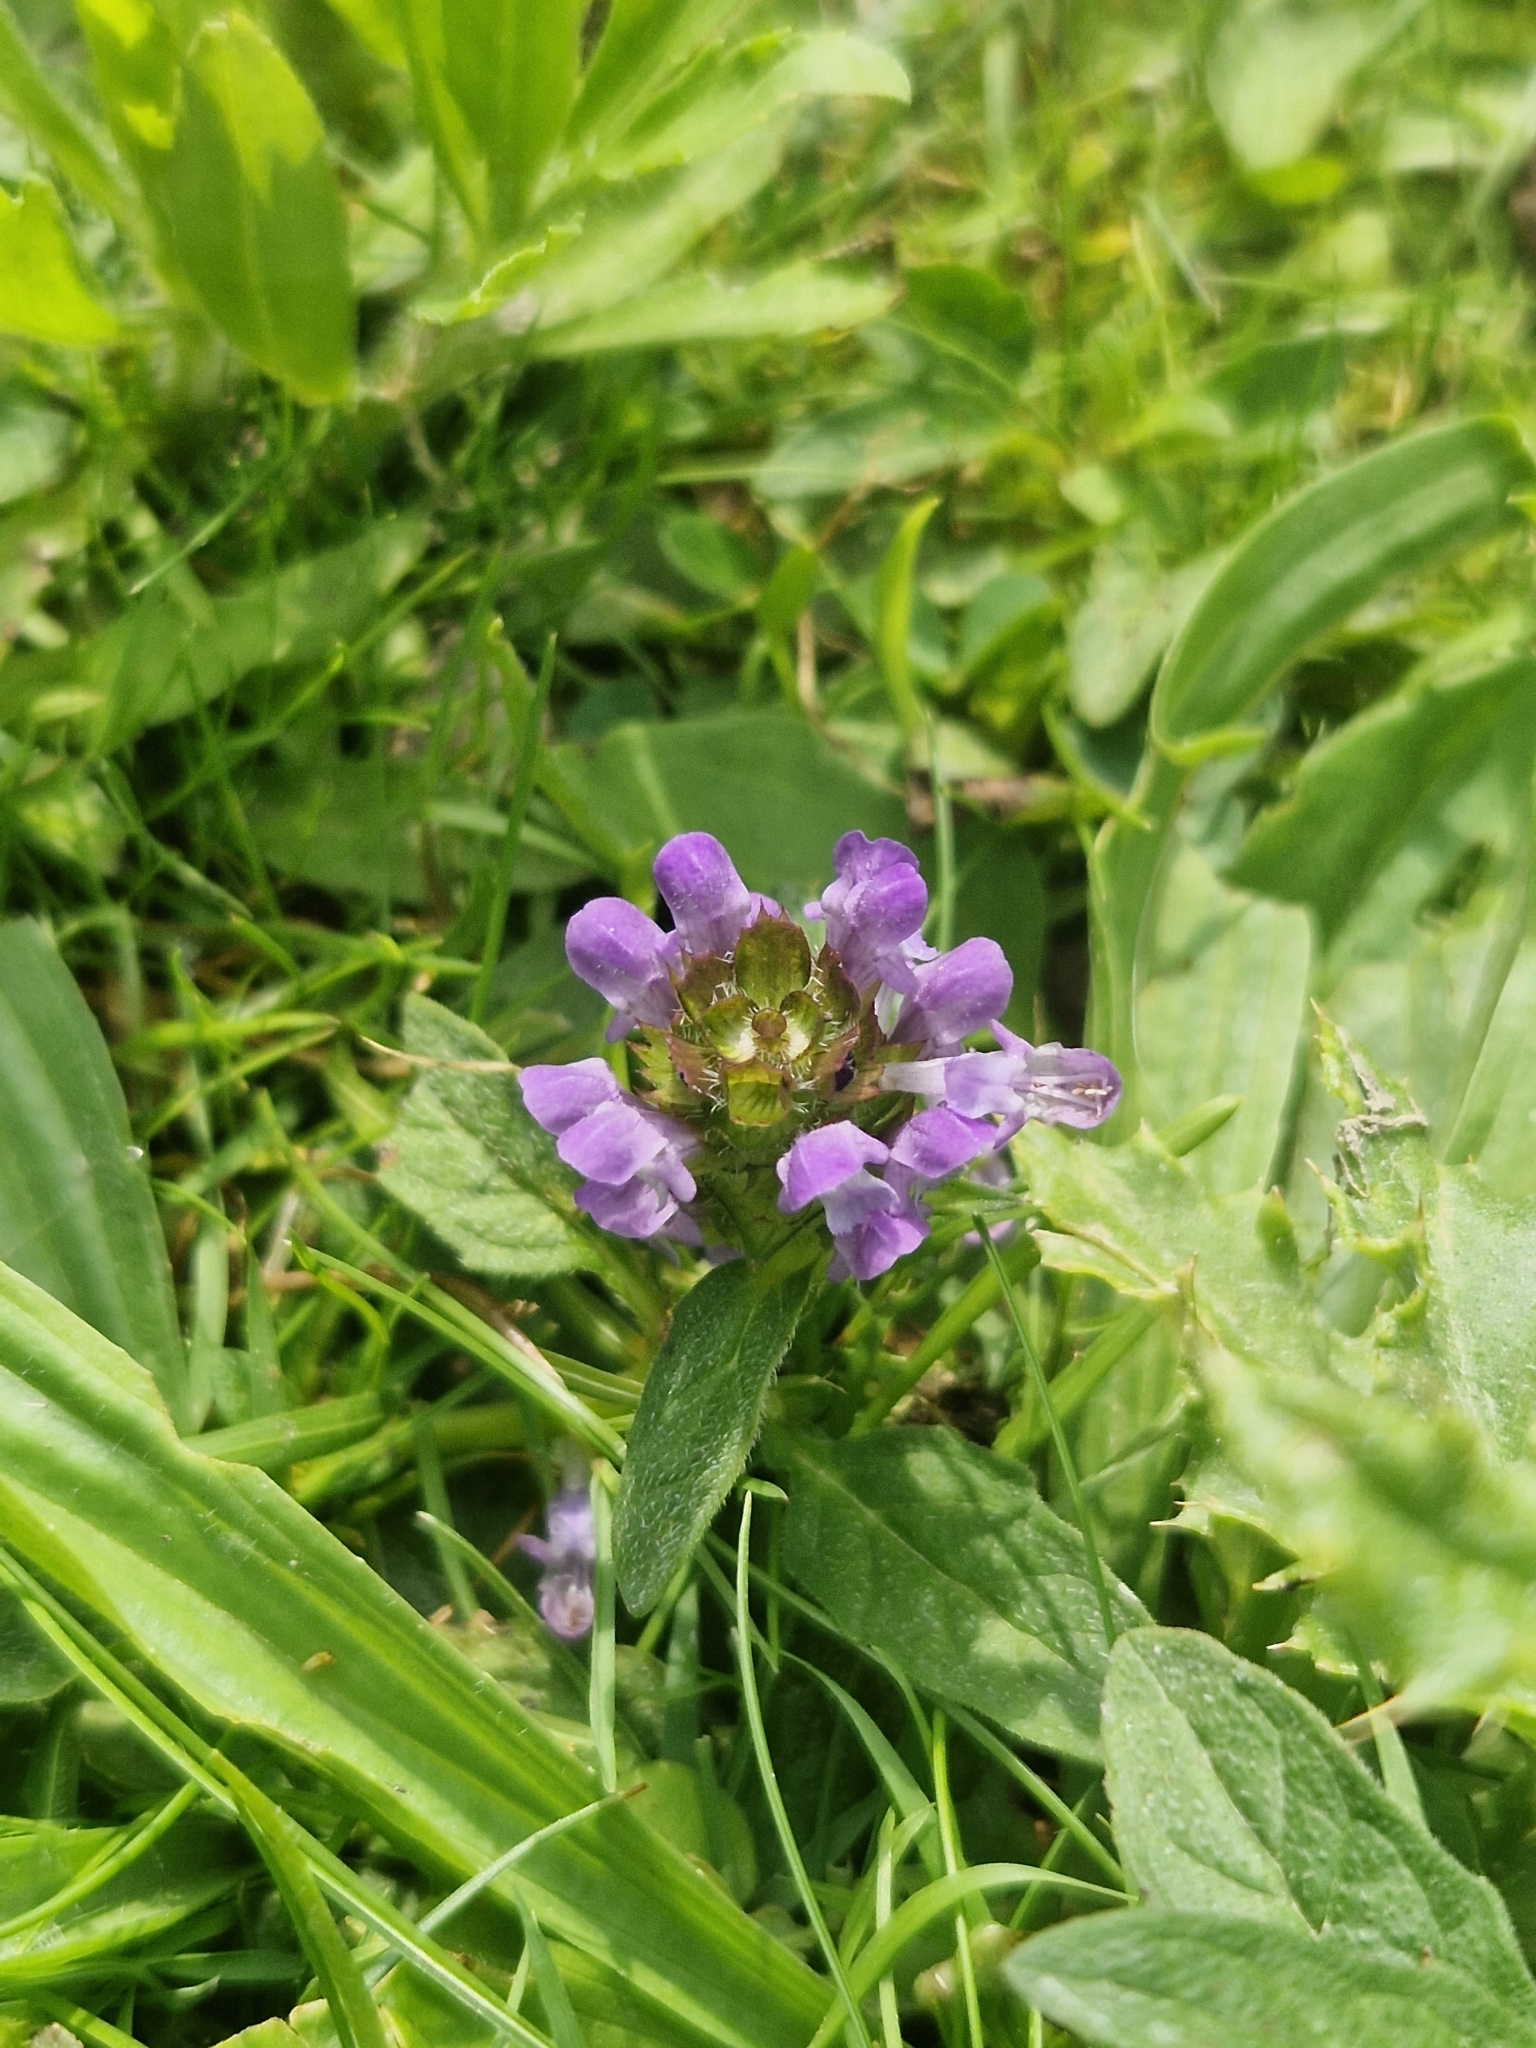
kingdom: Plantae
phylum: Tracheophyta
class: Magnoliopsida
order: Lamiales
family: Lamiaceae
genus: Prunella
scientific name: Prunella vulgaris
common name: Heal-all
